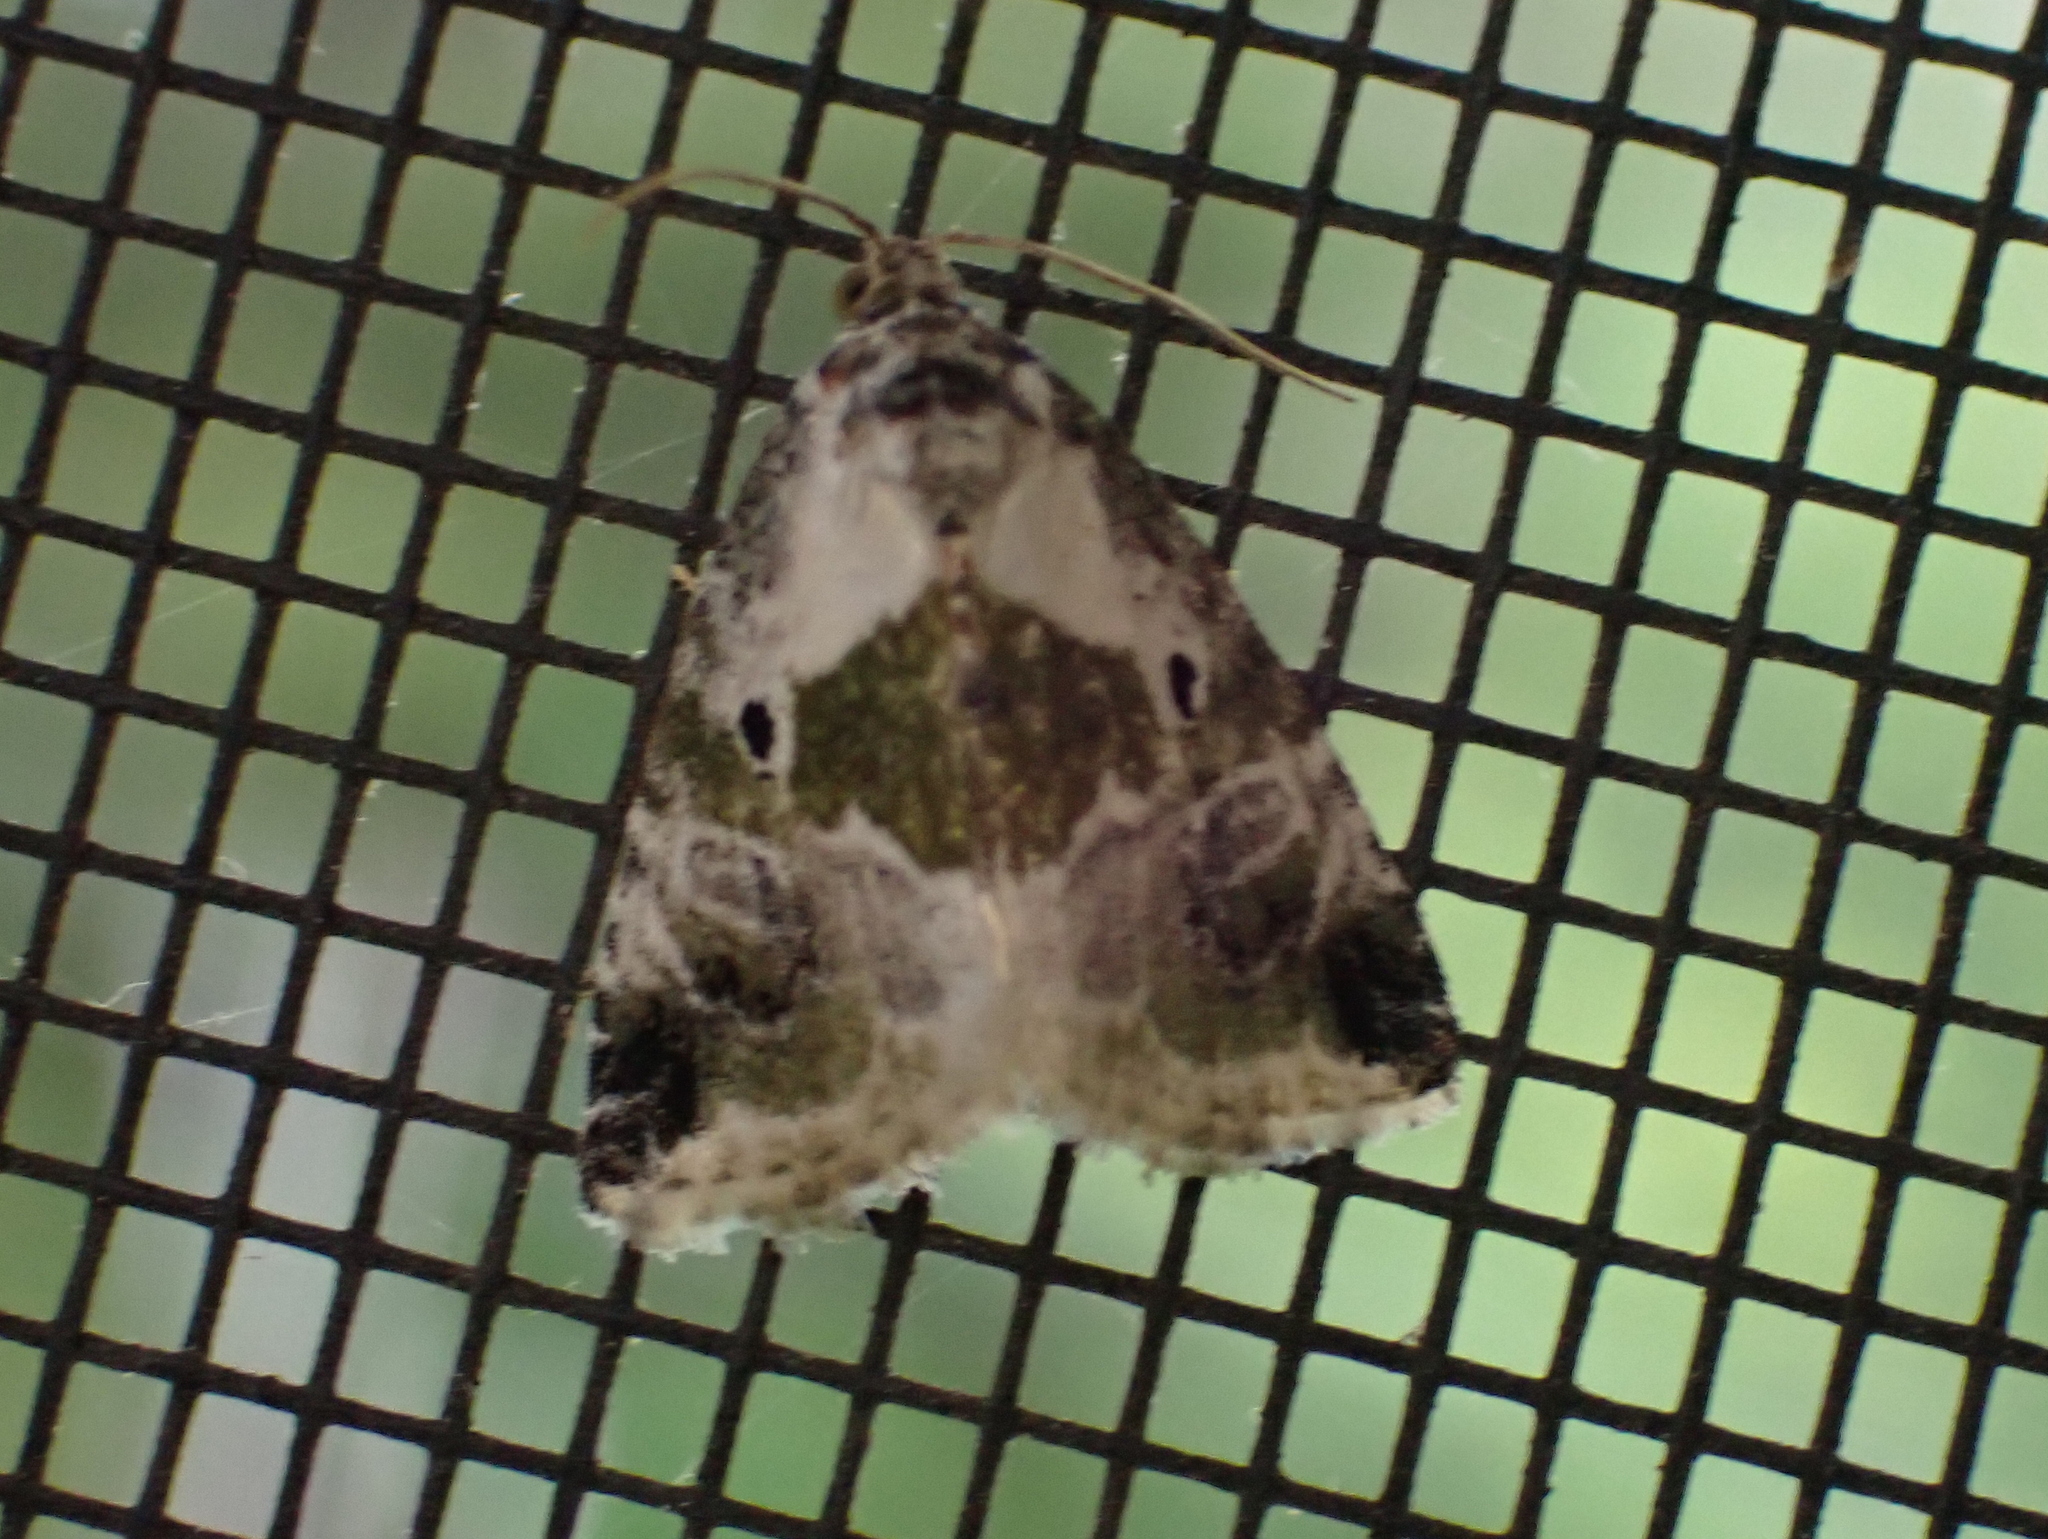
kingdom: Animalia
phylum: Arthropoda
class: Insecta
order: Lepidoptera
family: Noctuidae
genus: Maliattha
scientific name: Maliattha synochitis
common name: Black-dotted glyph
